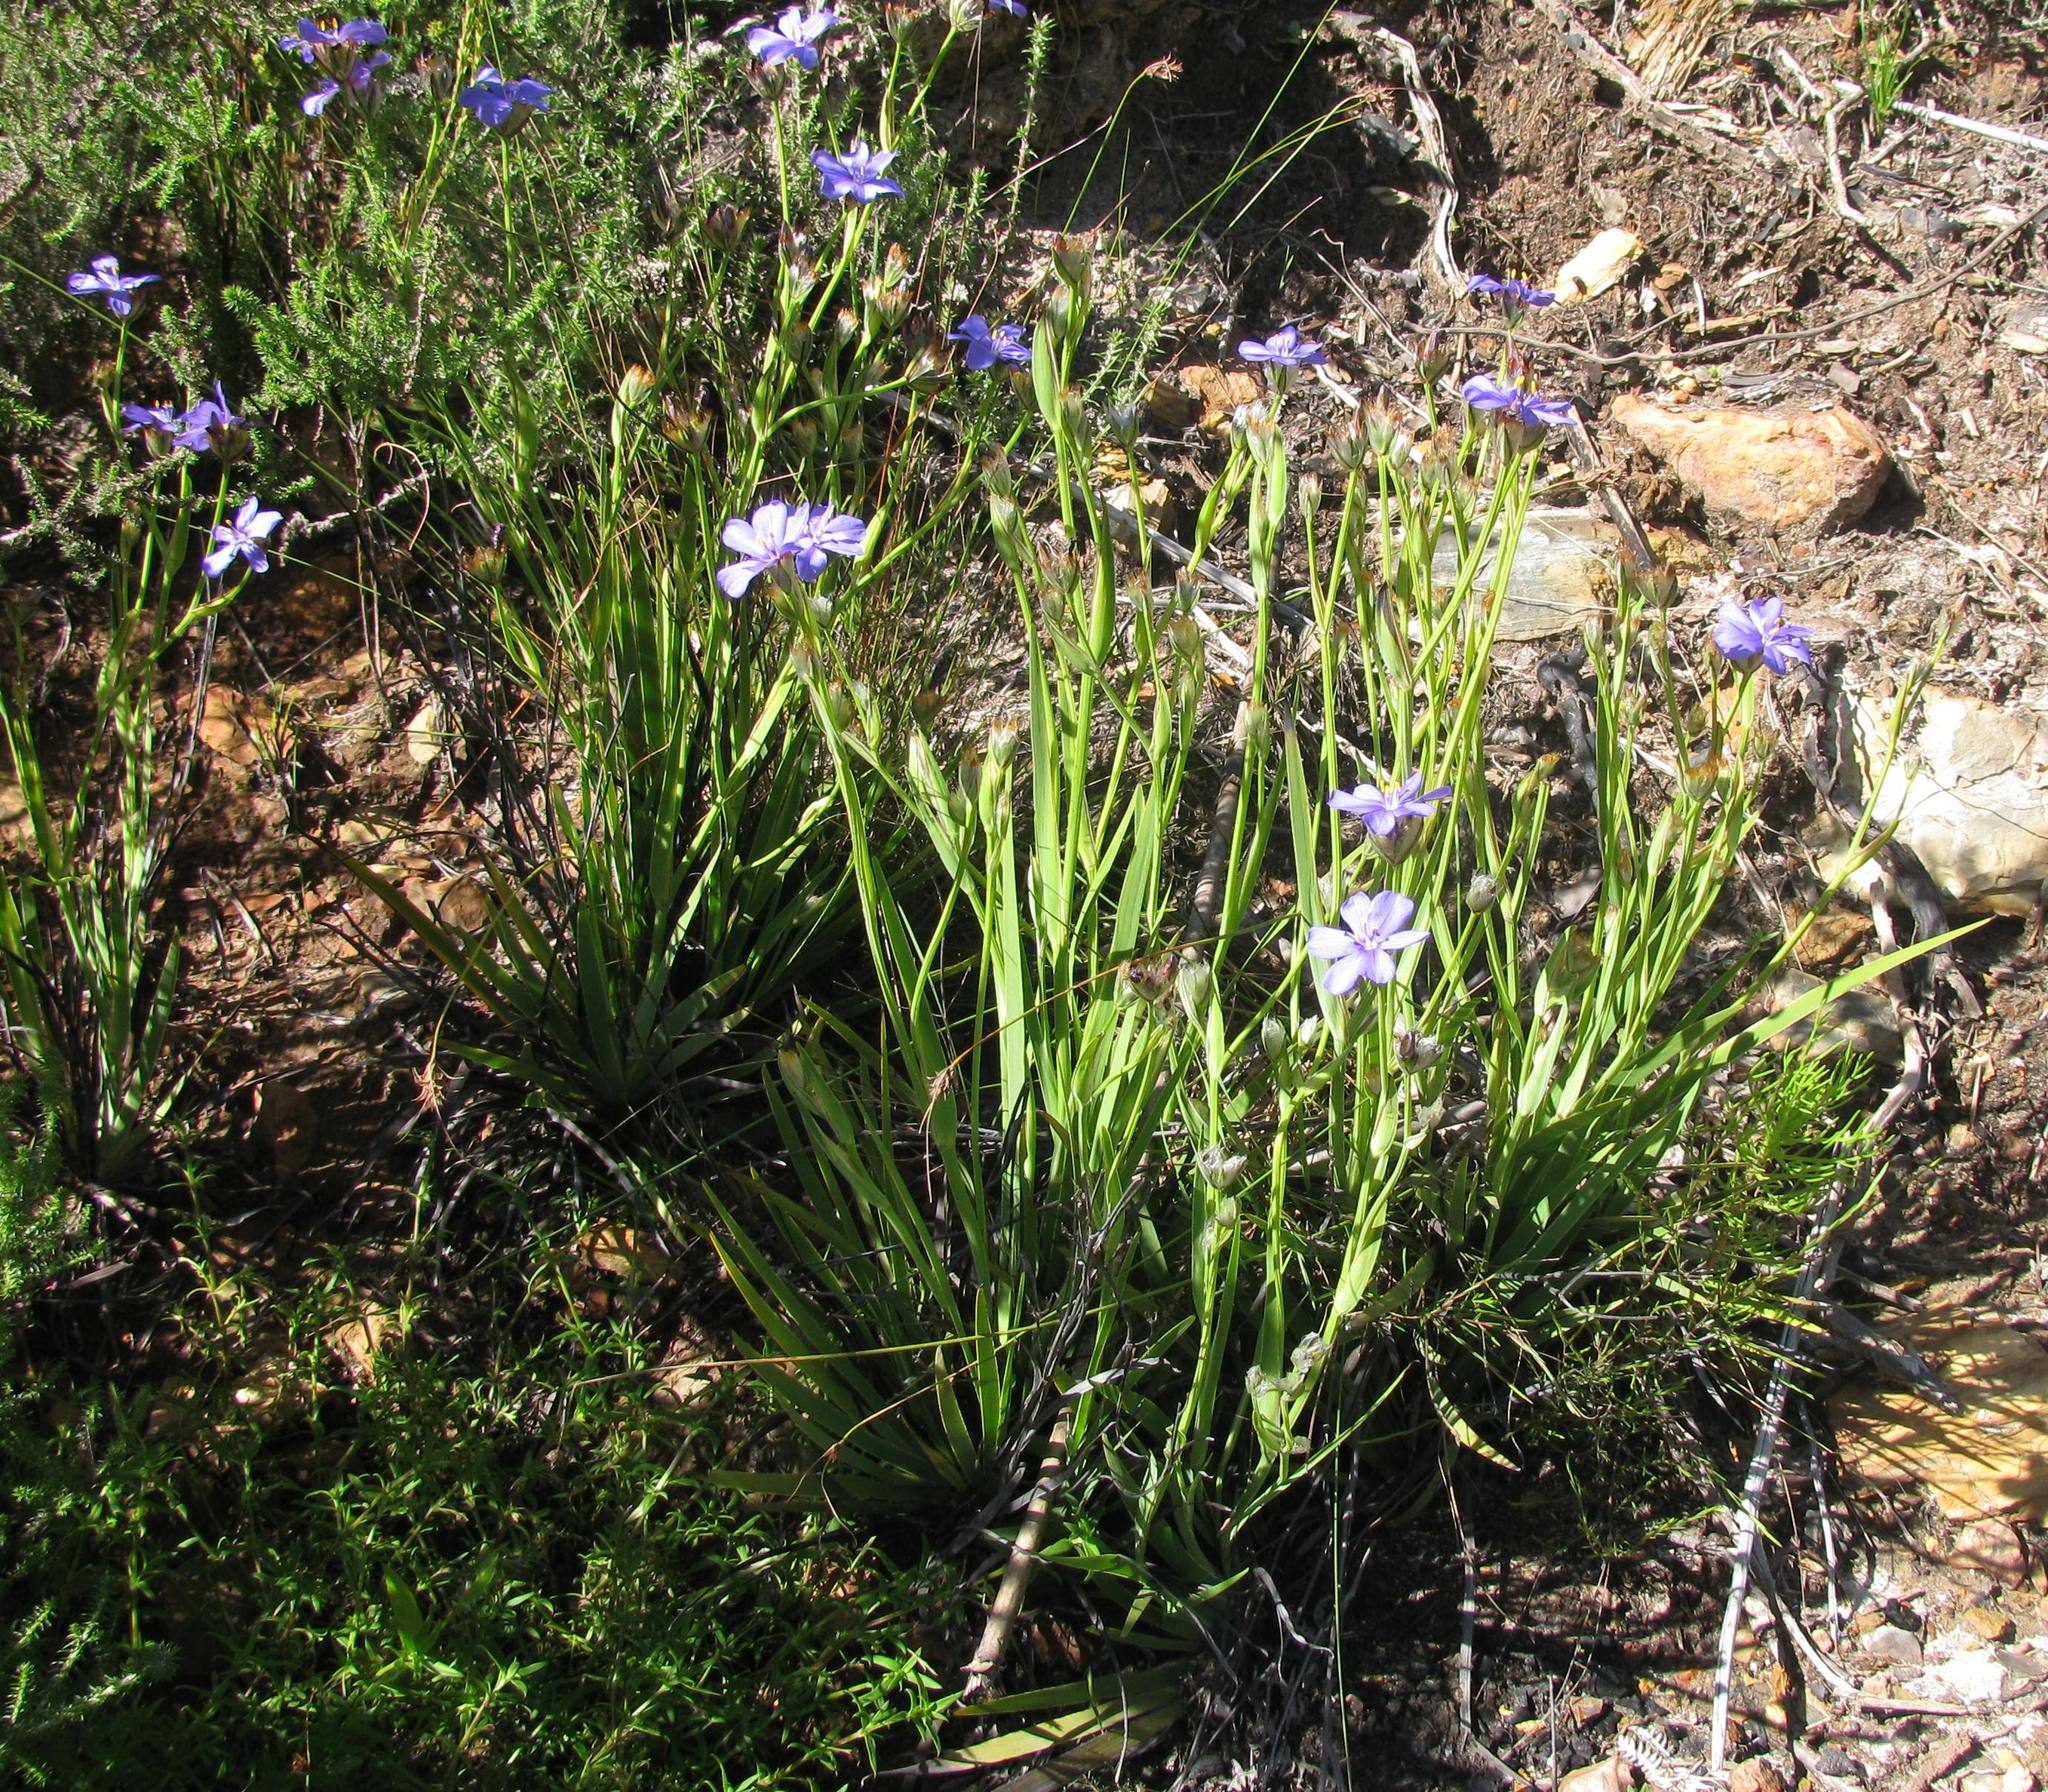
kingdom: Plantae
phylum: Tracheophyta
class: Liliopsida
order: Asparagales
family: Iridaceae
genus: Aristea
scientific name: Aristea africana
